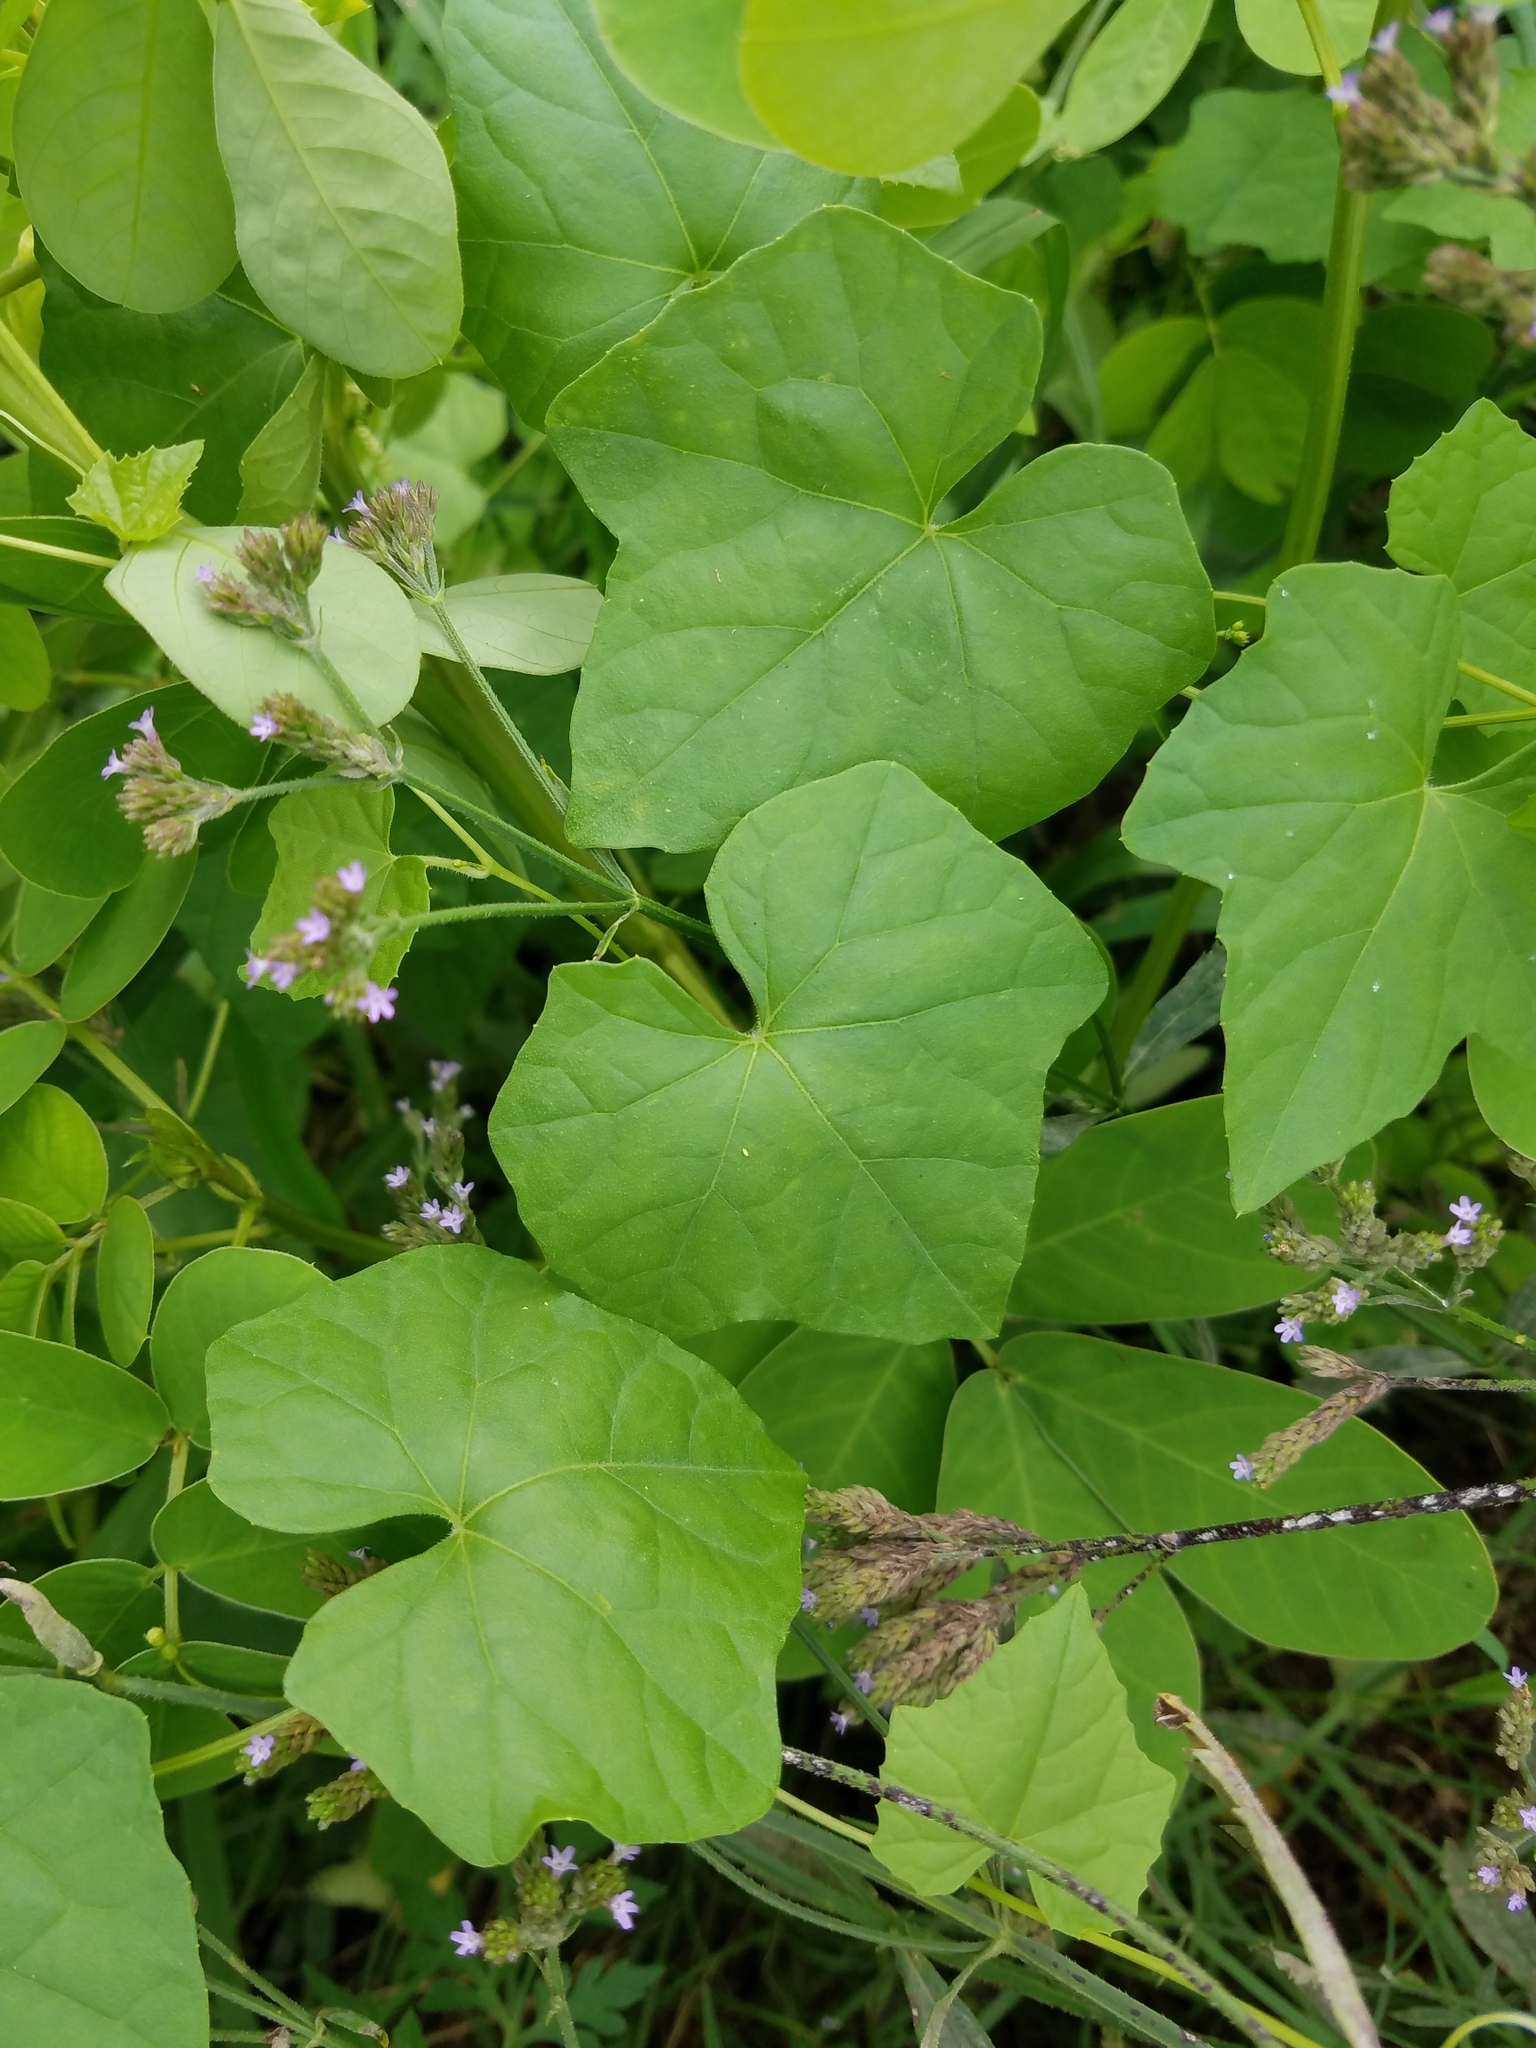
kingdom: Plantae
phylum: Tracheophyta
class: Magnoliopsida
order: Cucurbitales
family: Cucurbitaceae
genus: Melothria
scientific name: Melothria pendula
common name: Creeping-cucumber
